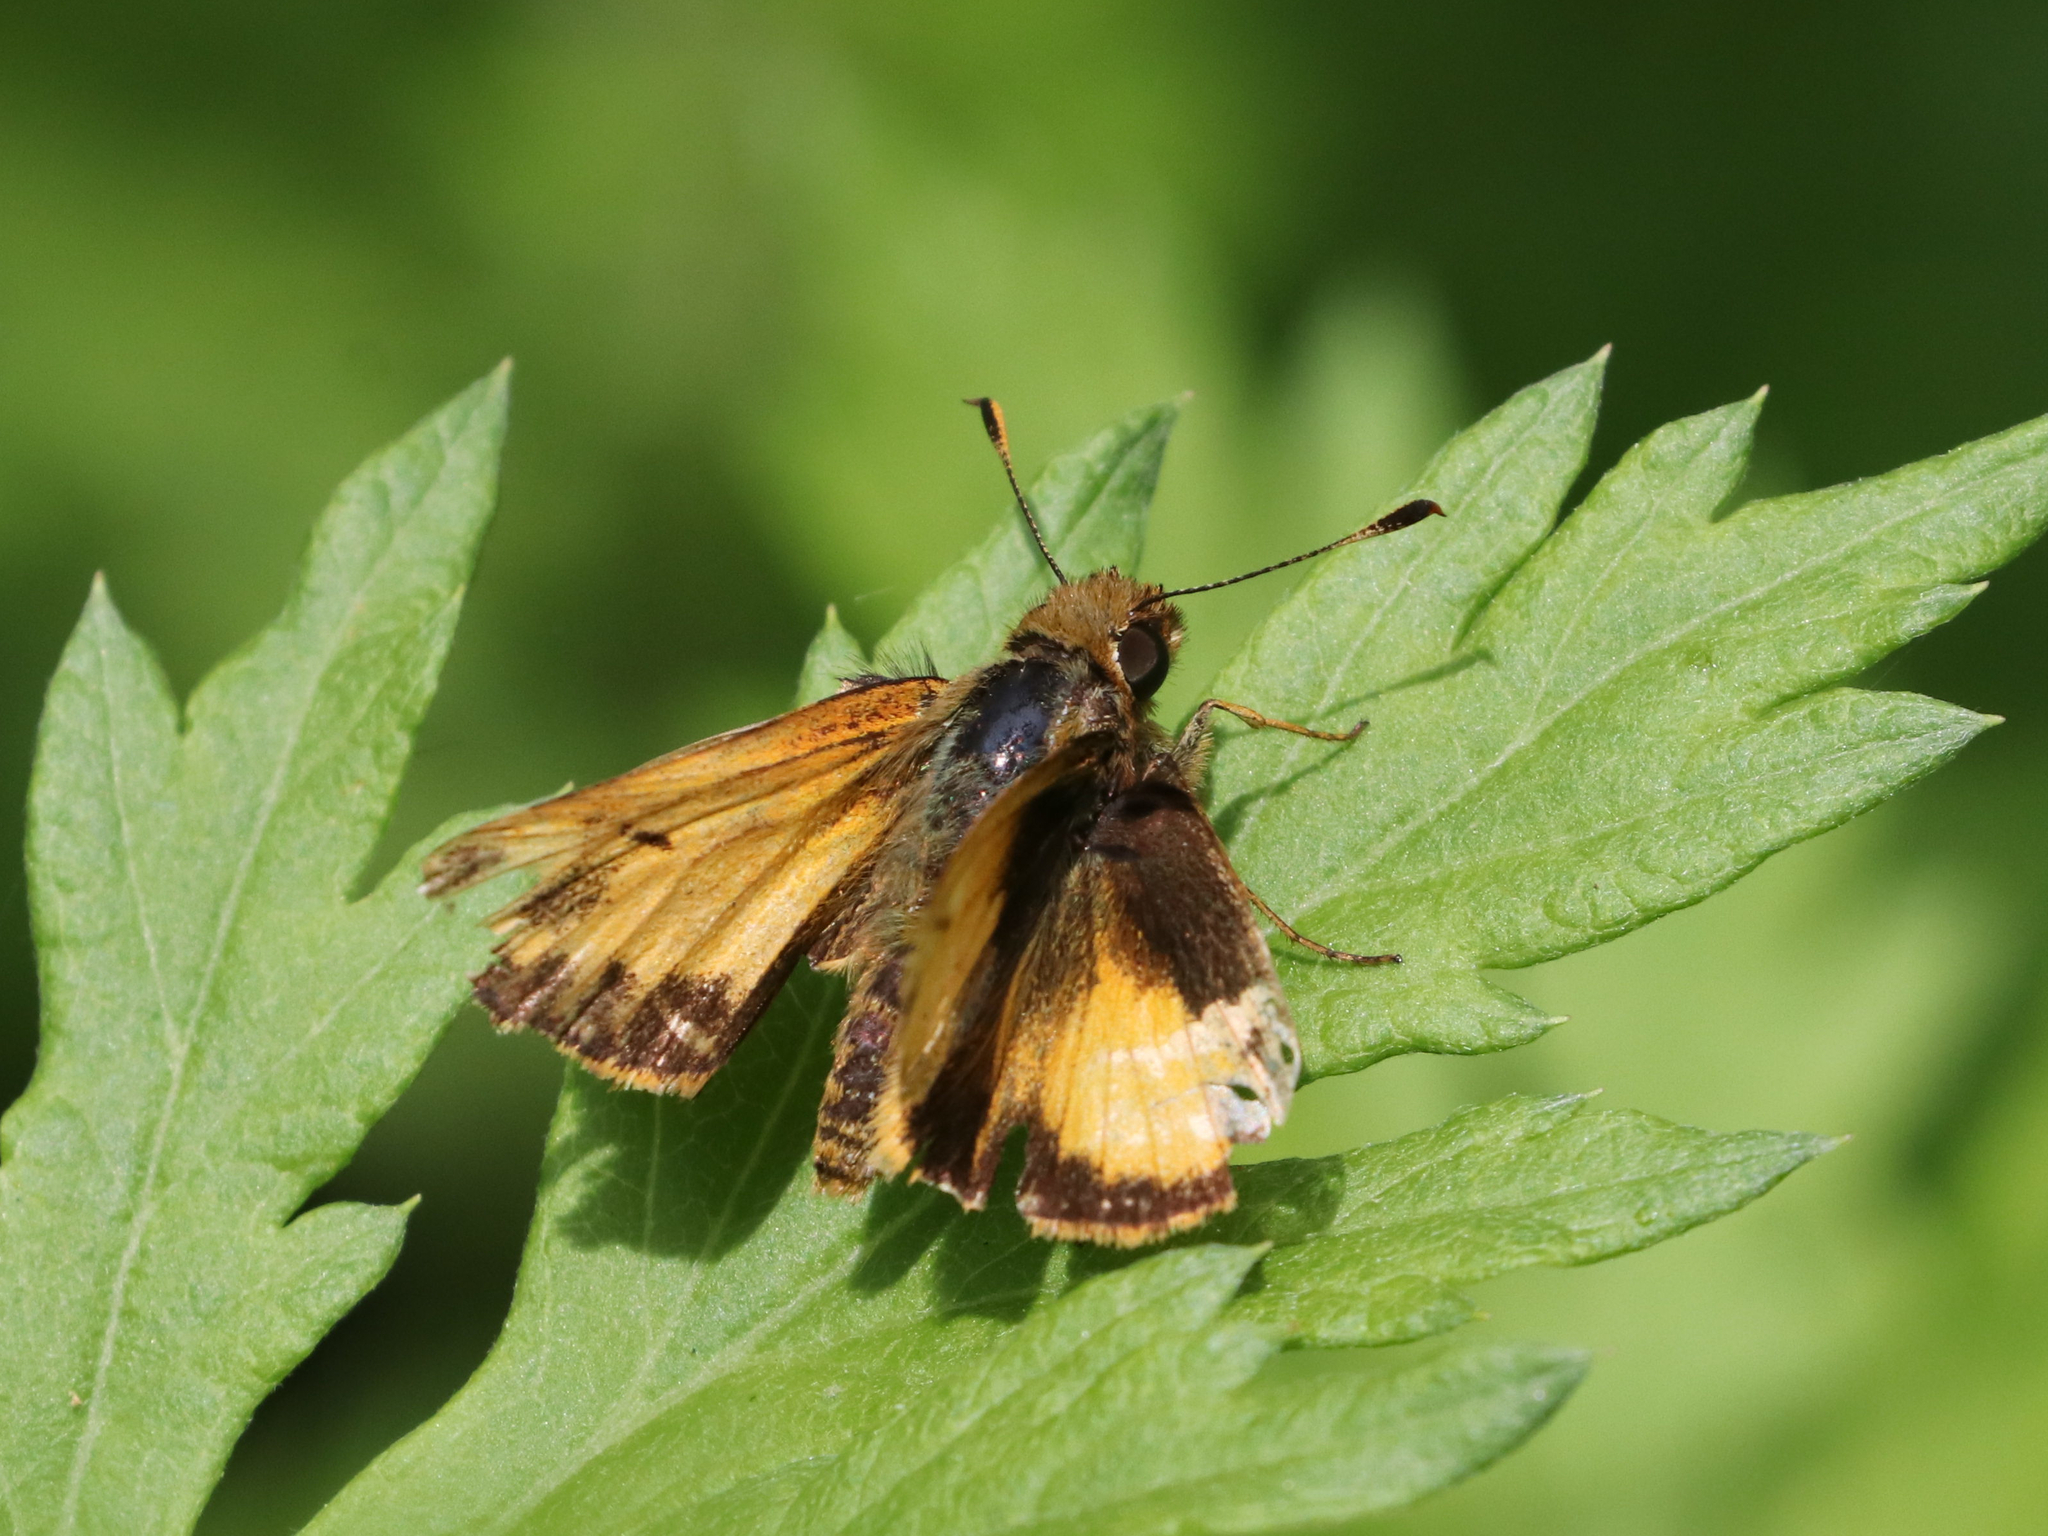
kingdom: Animalia
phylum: Arthropoda
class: Insecta
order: Lepidoptera
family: Hesperiidae
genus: Lon
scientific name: Lon zabulon
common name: Zabulon skipper
